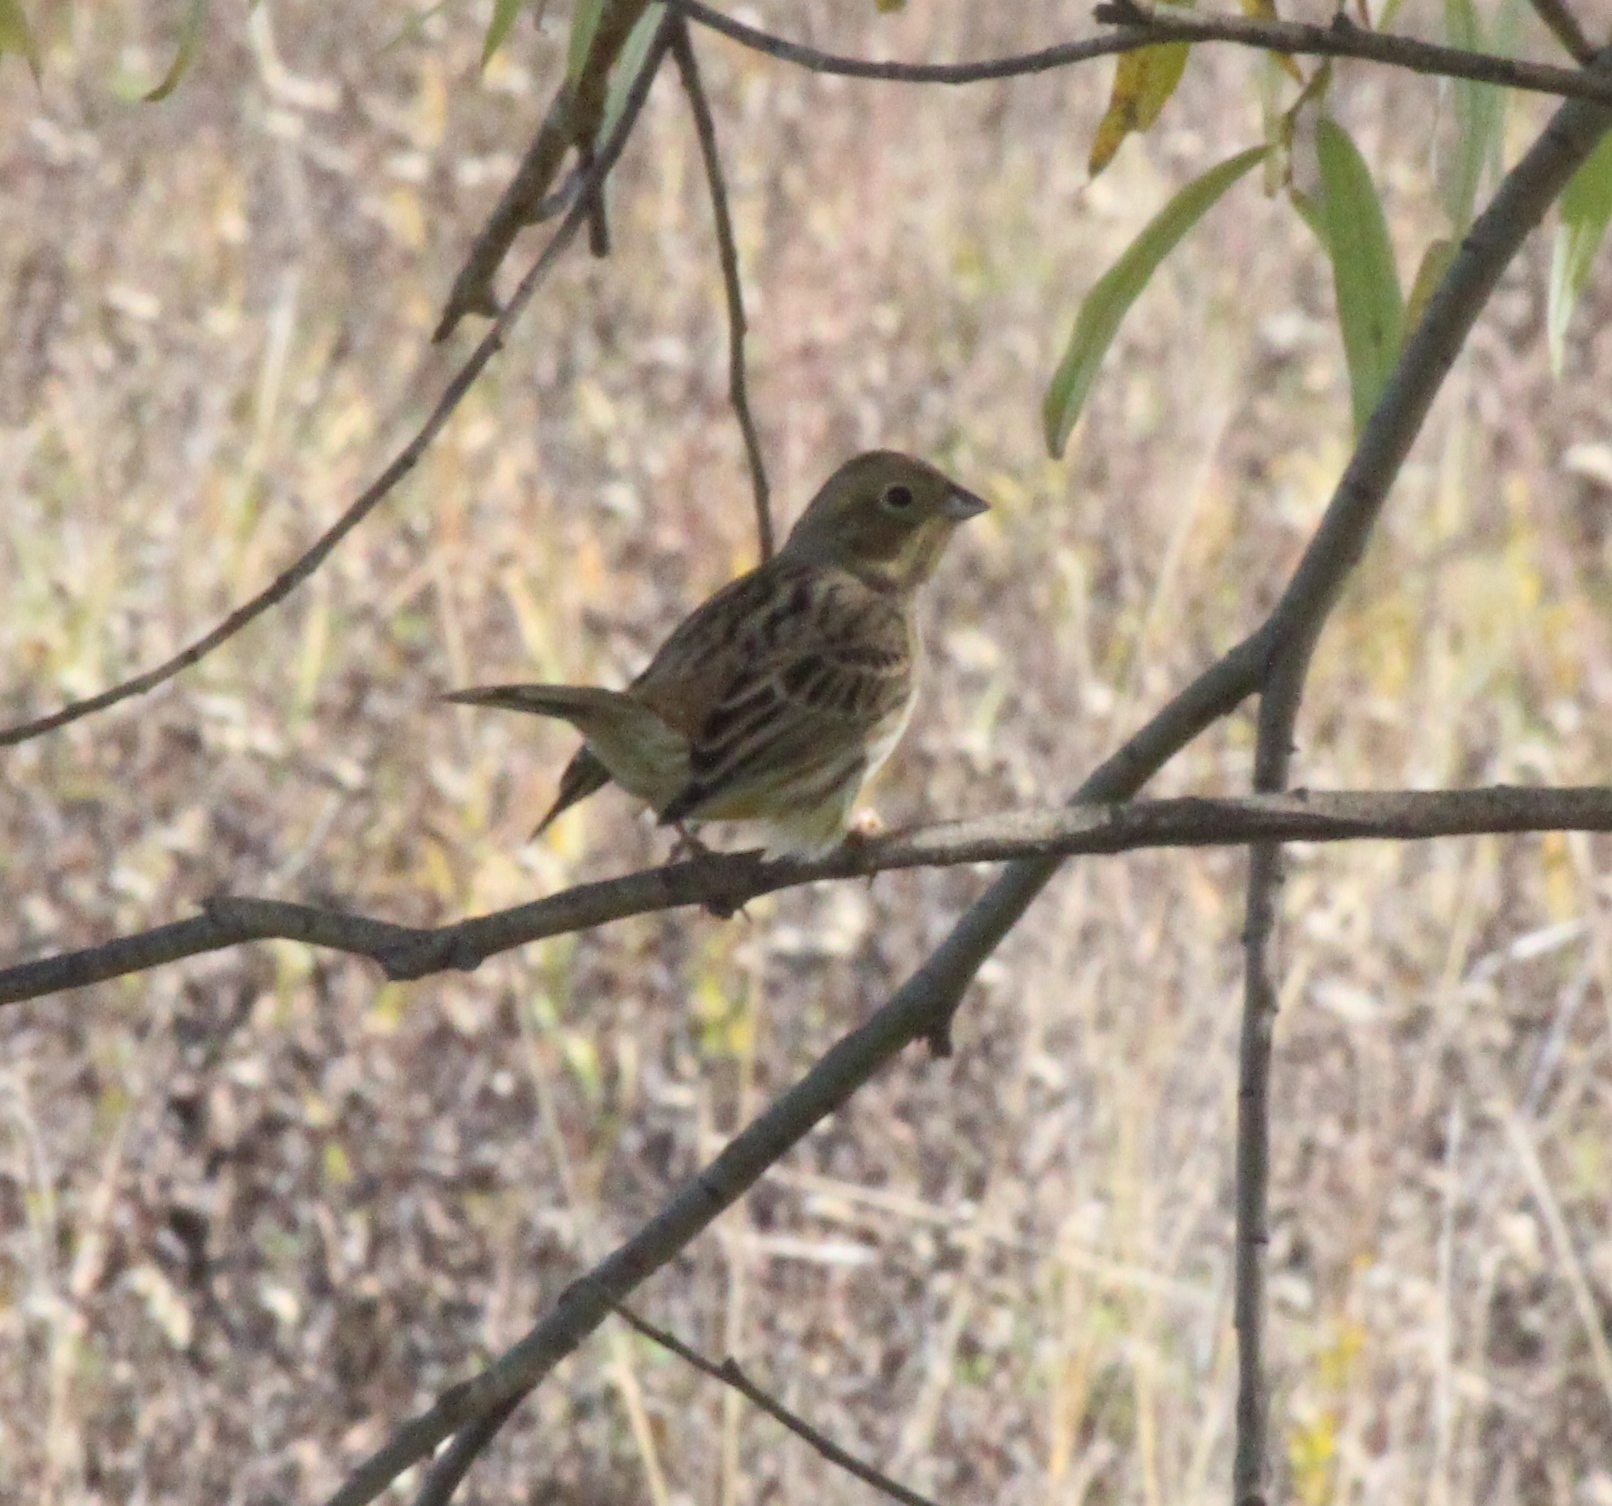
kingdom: Animalia
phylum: Chordata
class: Aves
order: Passeriformes
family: Emberizidae
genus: Emberiza
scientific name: Emberiza
